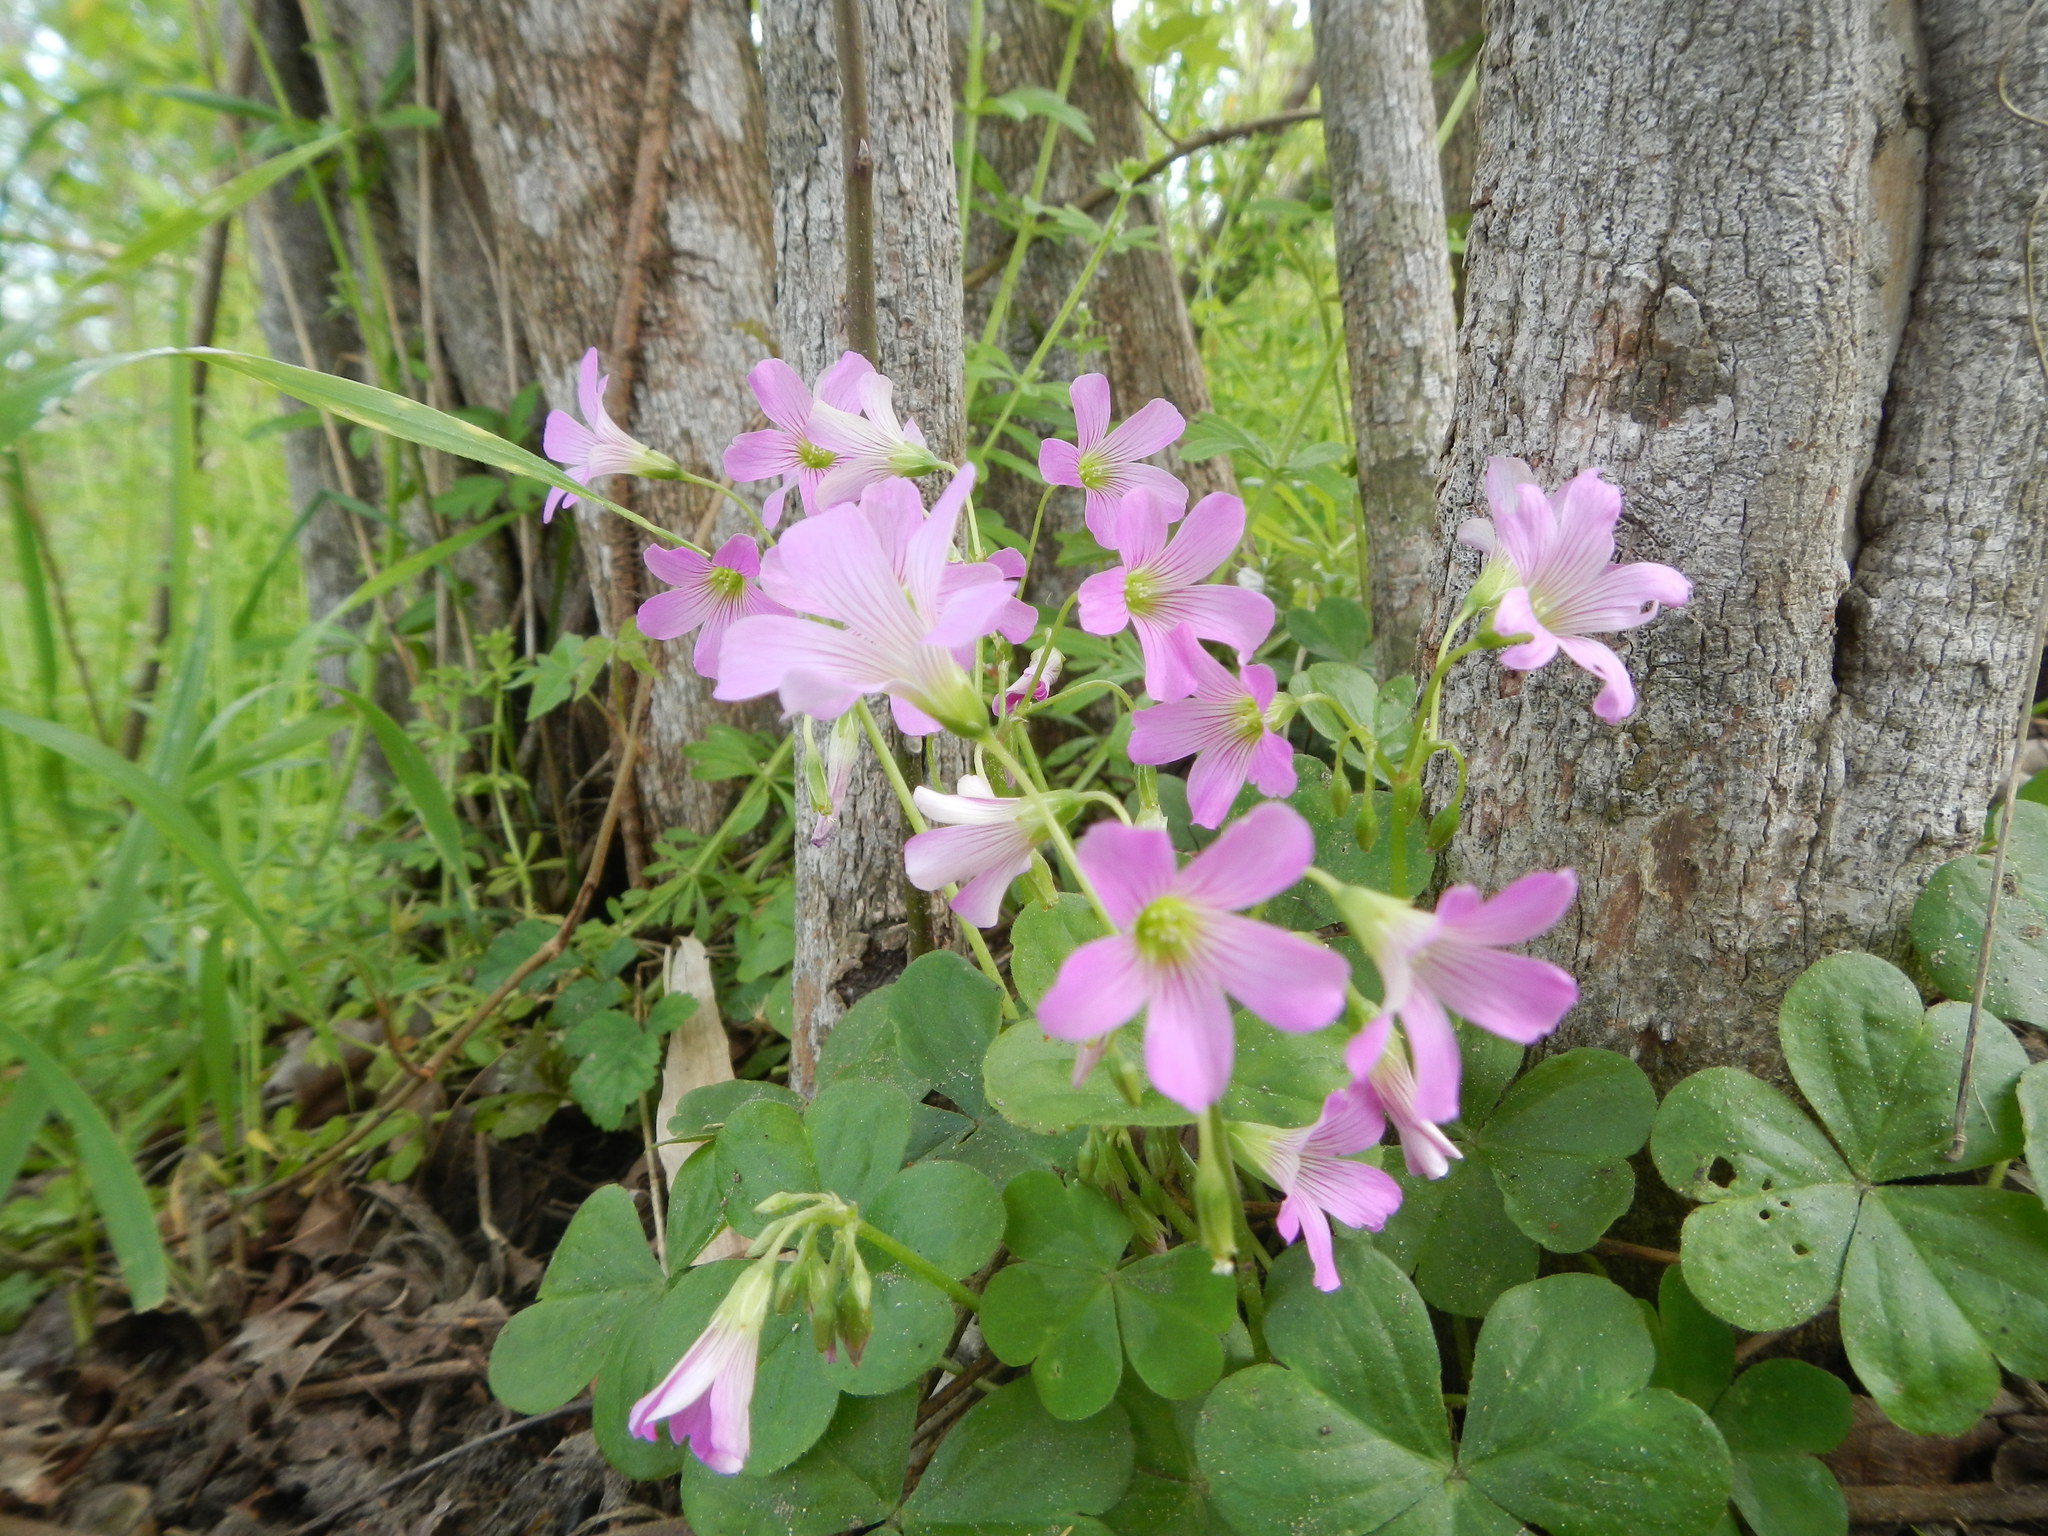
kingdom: Plantae
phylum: Tracheophyta
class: Magnoliopsida
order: Oxalidales
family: Oxalidaceae
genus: Oxalis
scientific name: Oxalis debilis
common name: Large-flowered pink-sorrel
